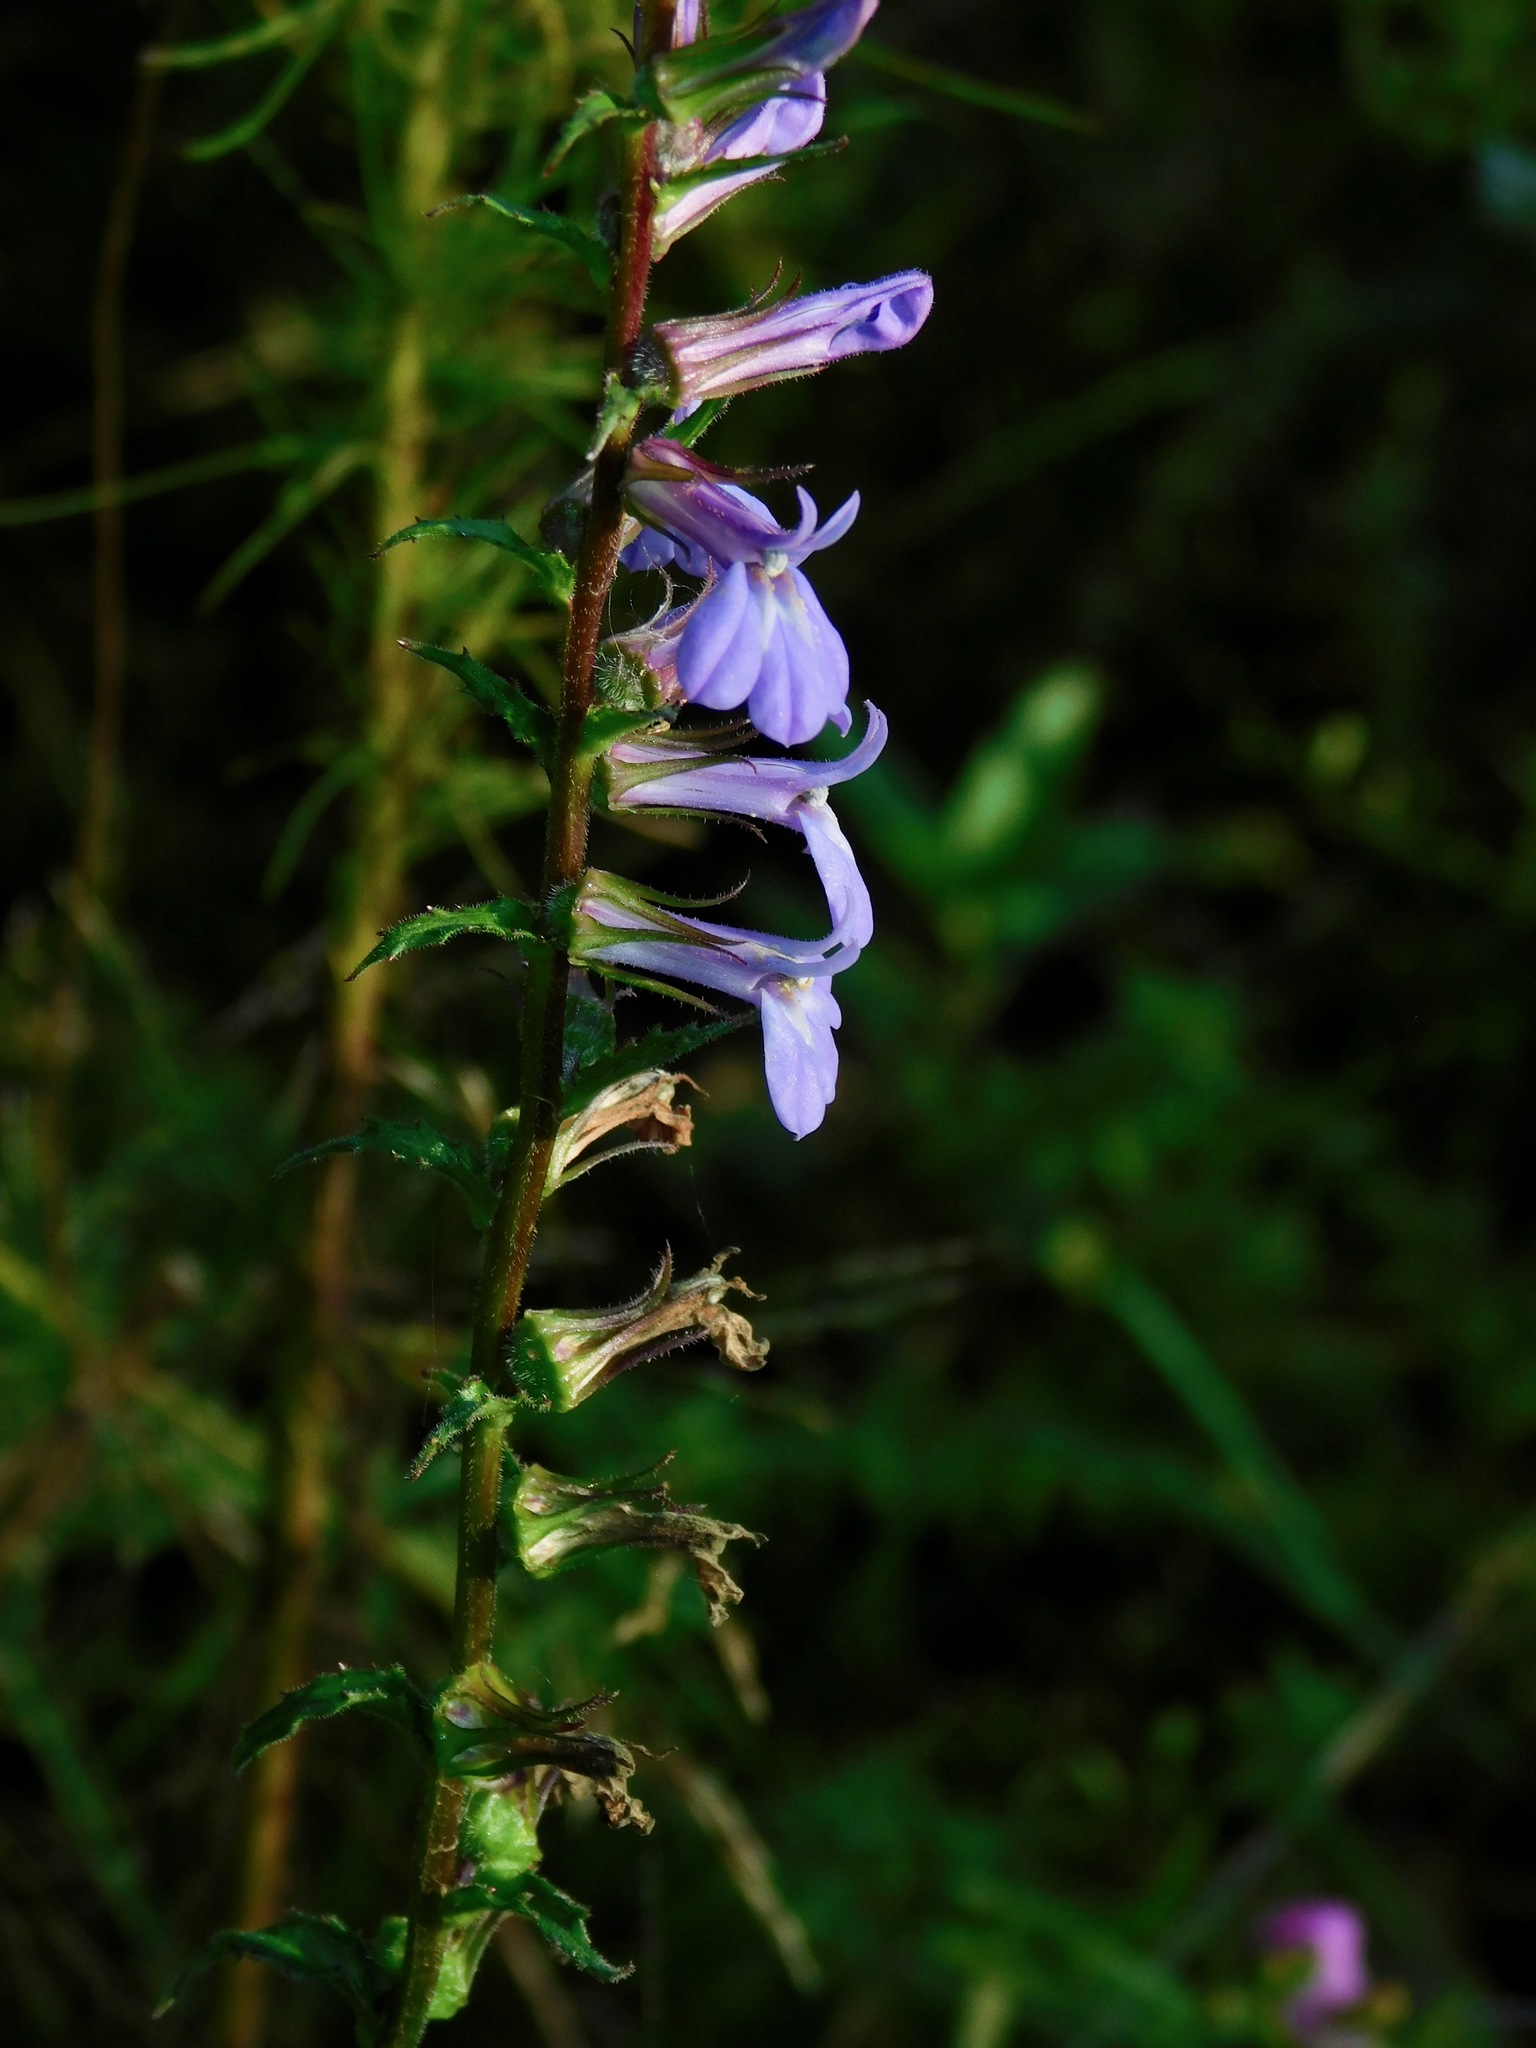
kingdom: Plantae
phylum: Tracheophyta
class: Magnoliopsida
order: Asterales
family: Campanulaceae
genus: Lobelia
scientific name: Lobelia puberula
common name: Purple dewdrop
